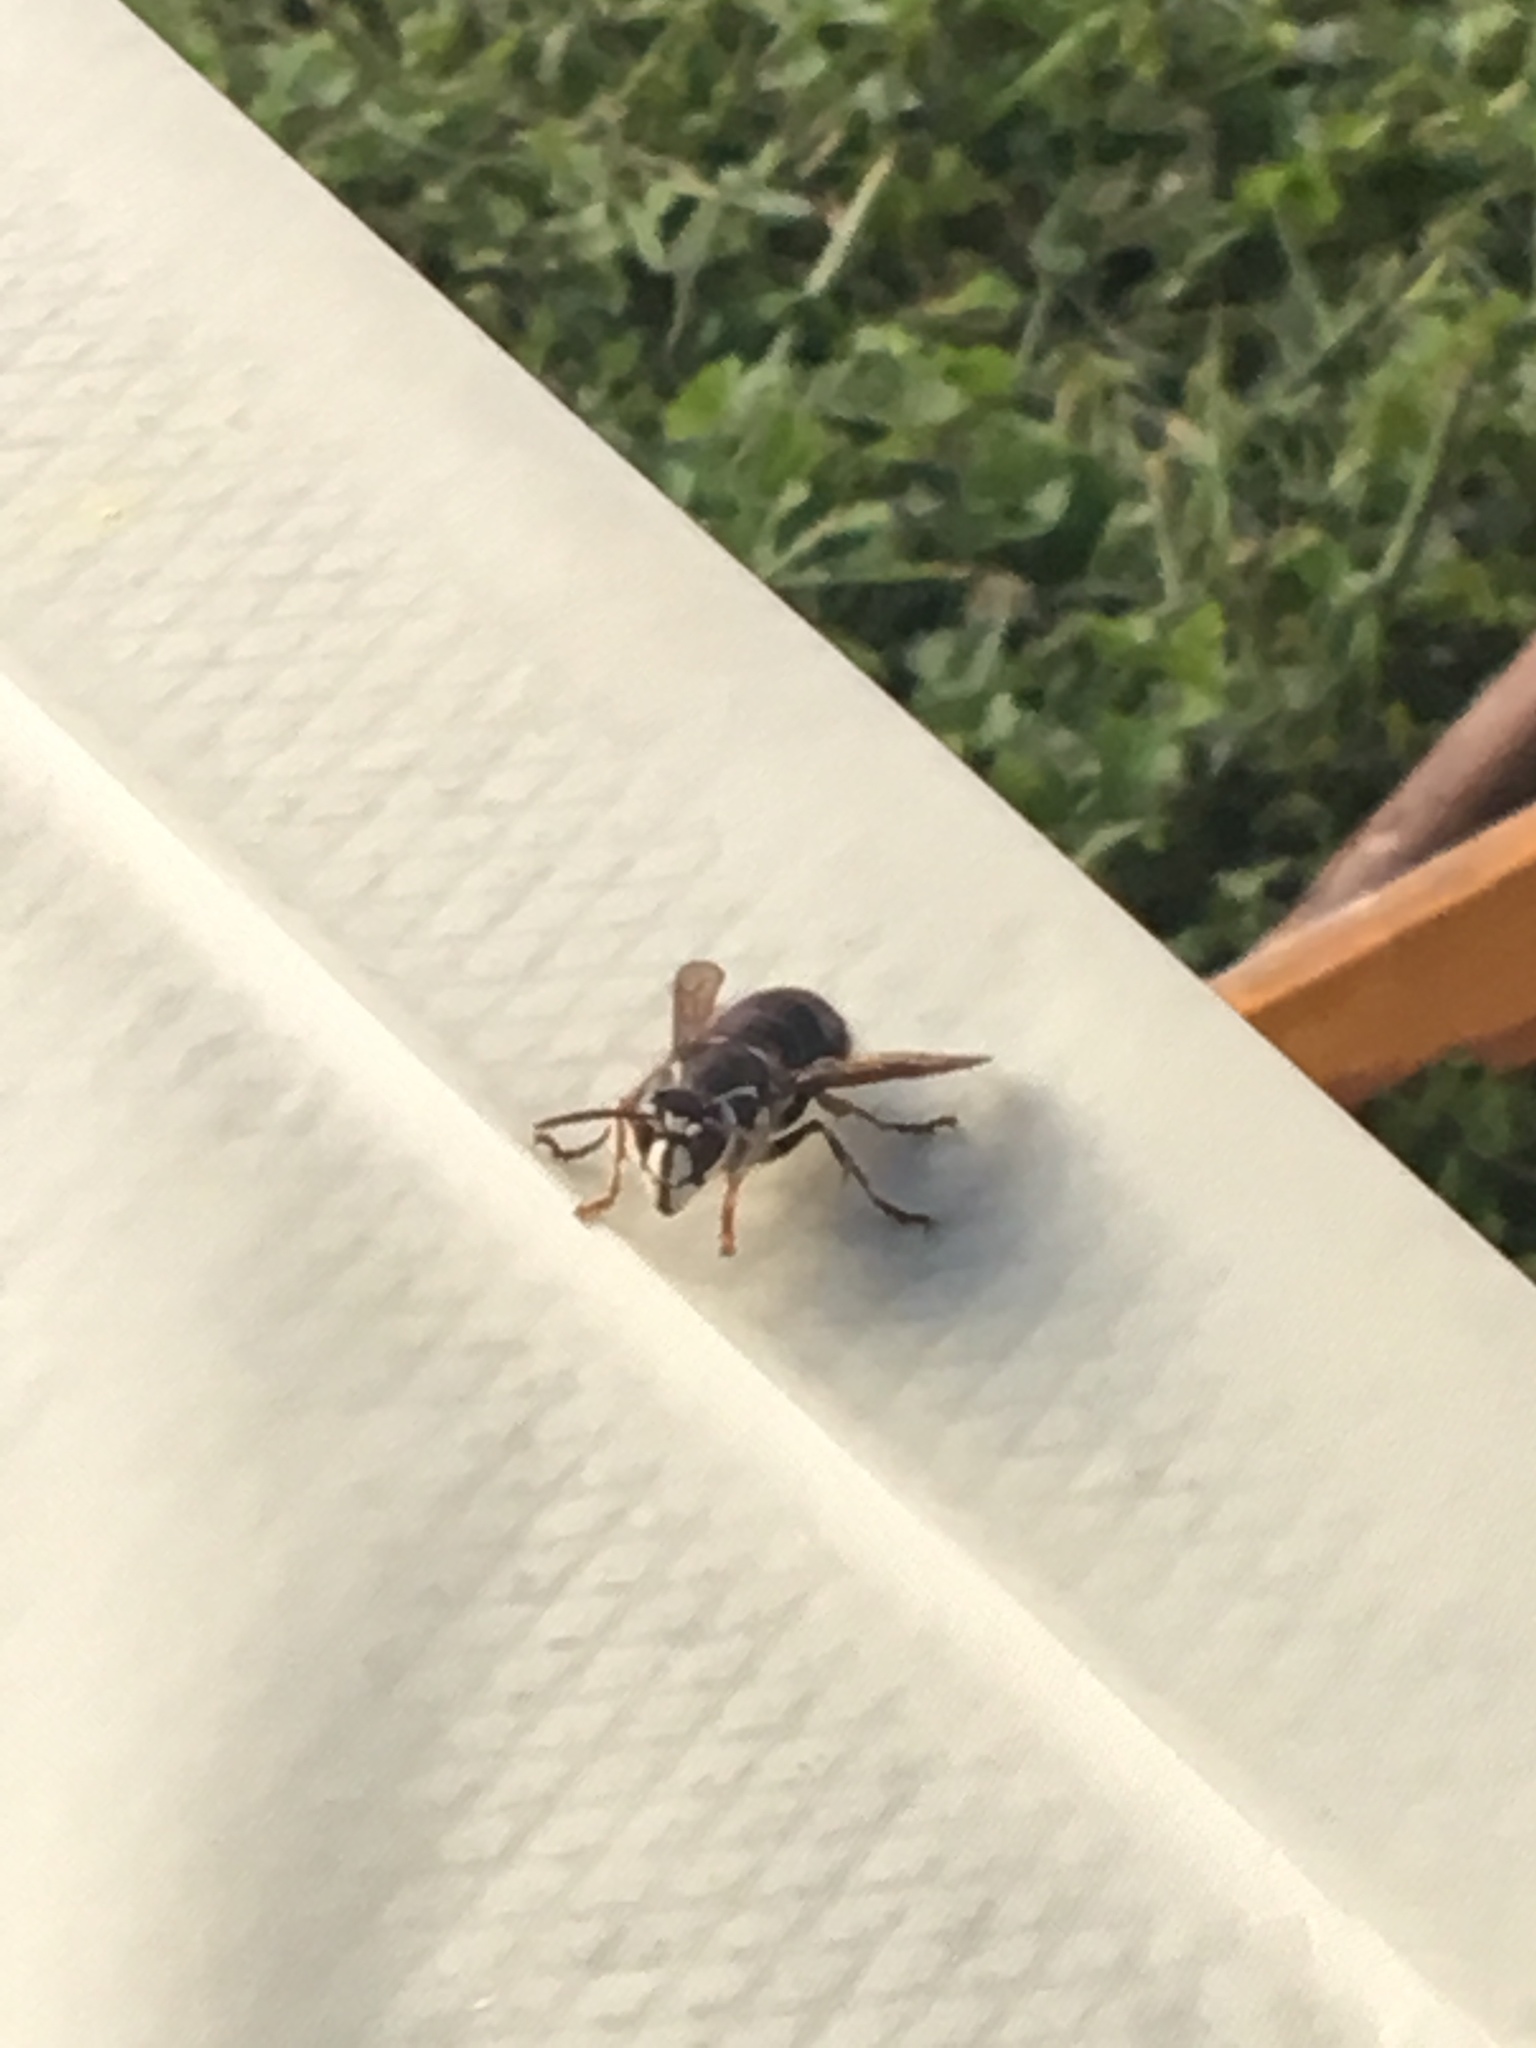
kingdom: Animalia
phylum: Arthropoda
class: Insecta
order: Hymenoptera
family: Vespidae
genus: Dolichovespula
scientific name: Dolichovespula maculata
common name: Bald-faced hornet
